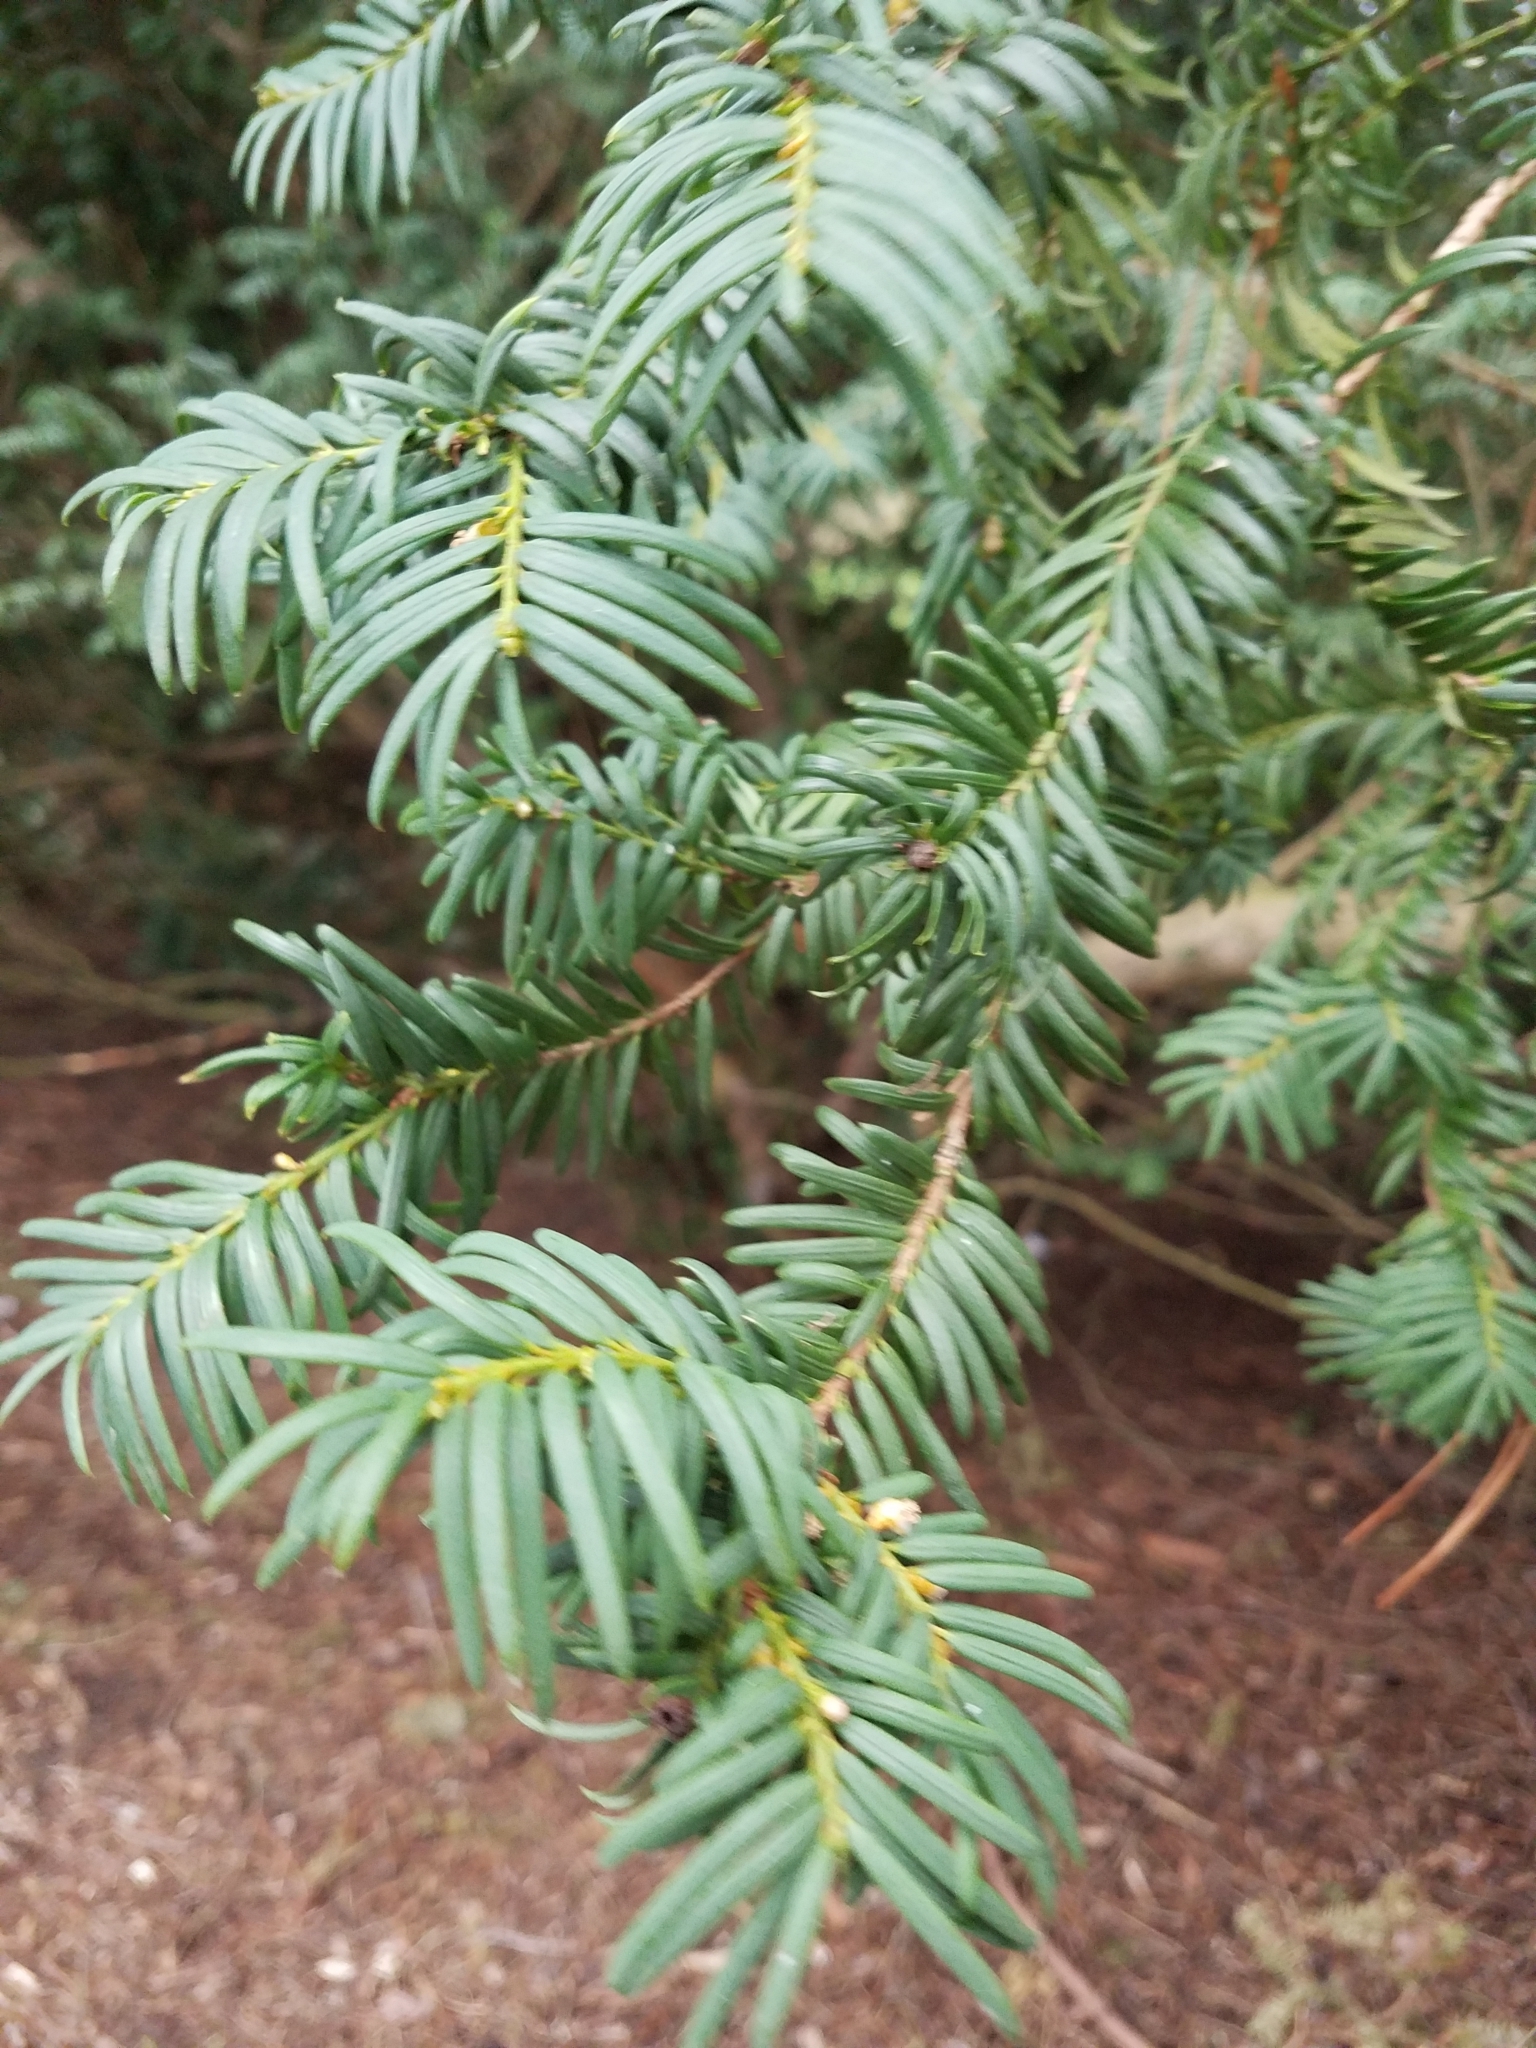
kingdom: Plantae
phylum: Tracheophyta
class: Pinopsida
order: Pinales
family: Taxaceae
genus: Taxus
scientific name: Taxus baccata
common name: Yew
